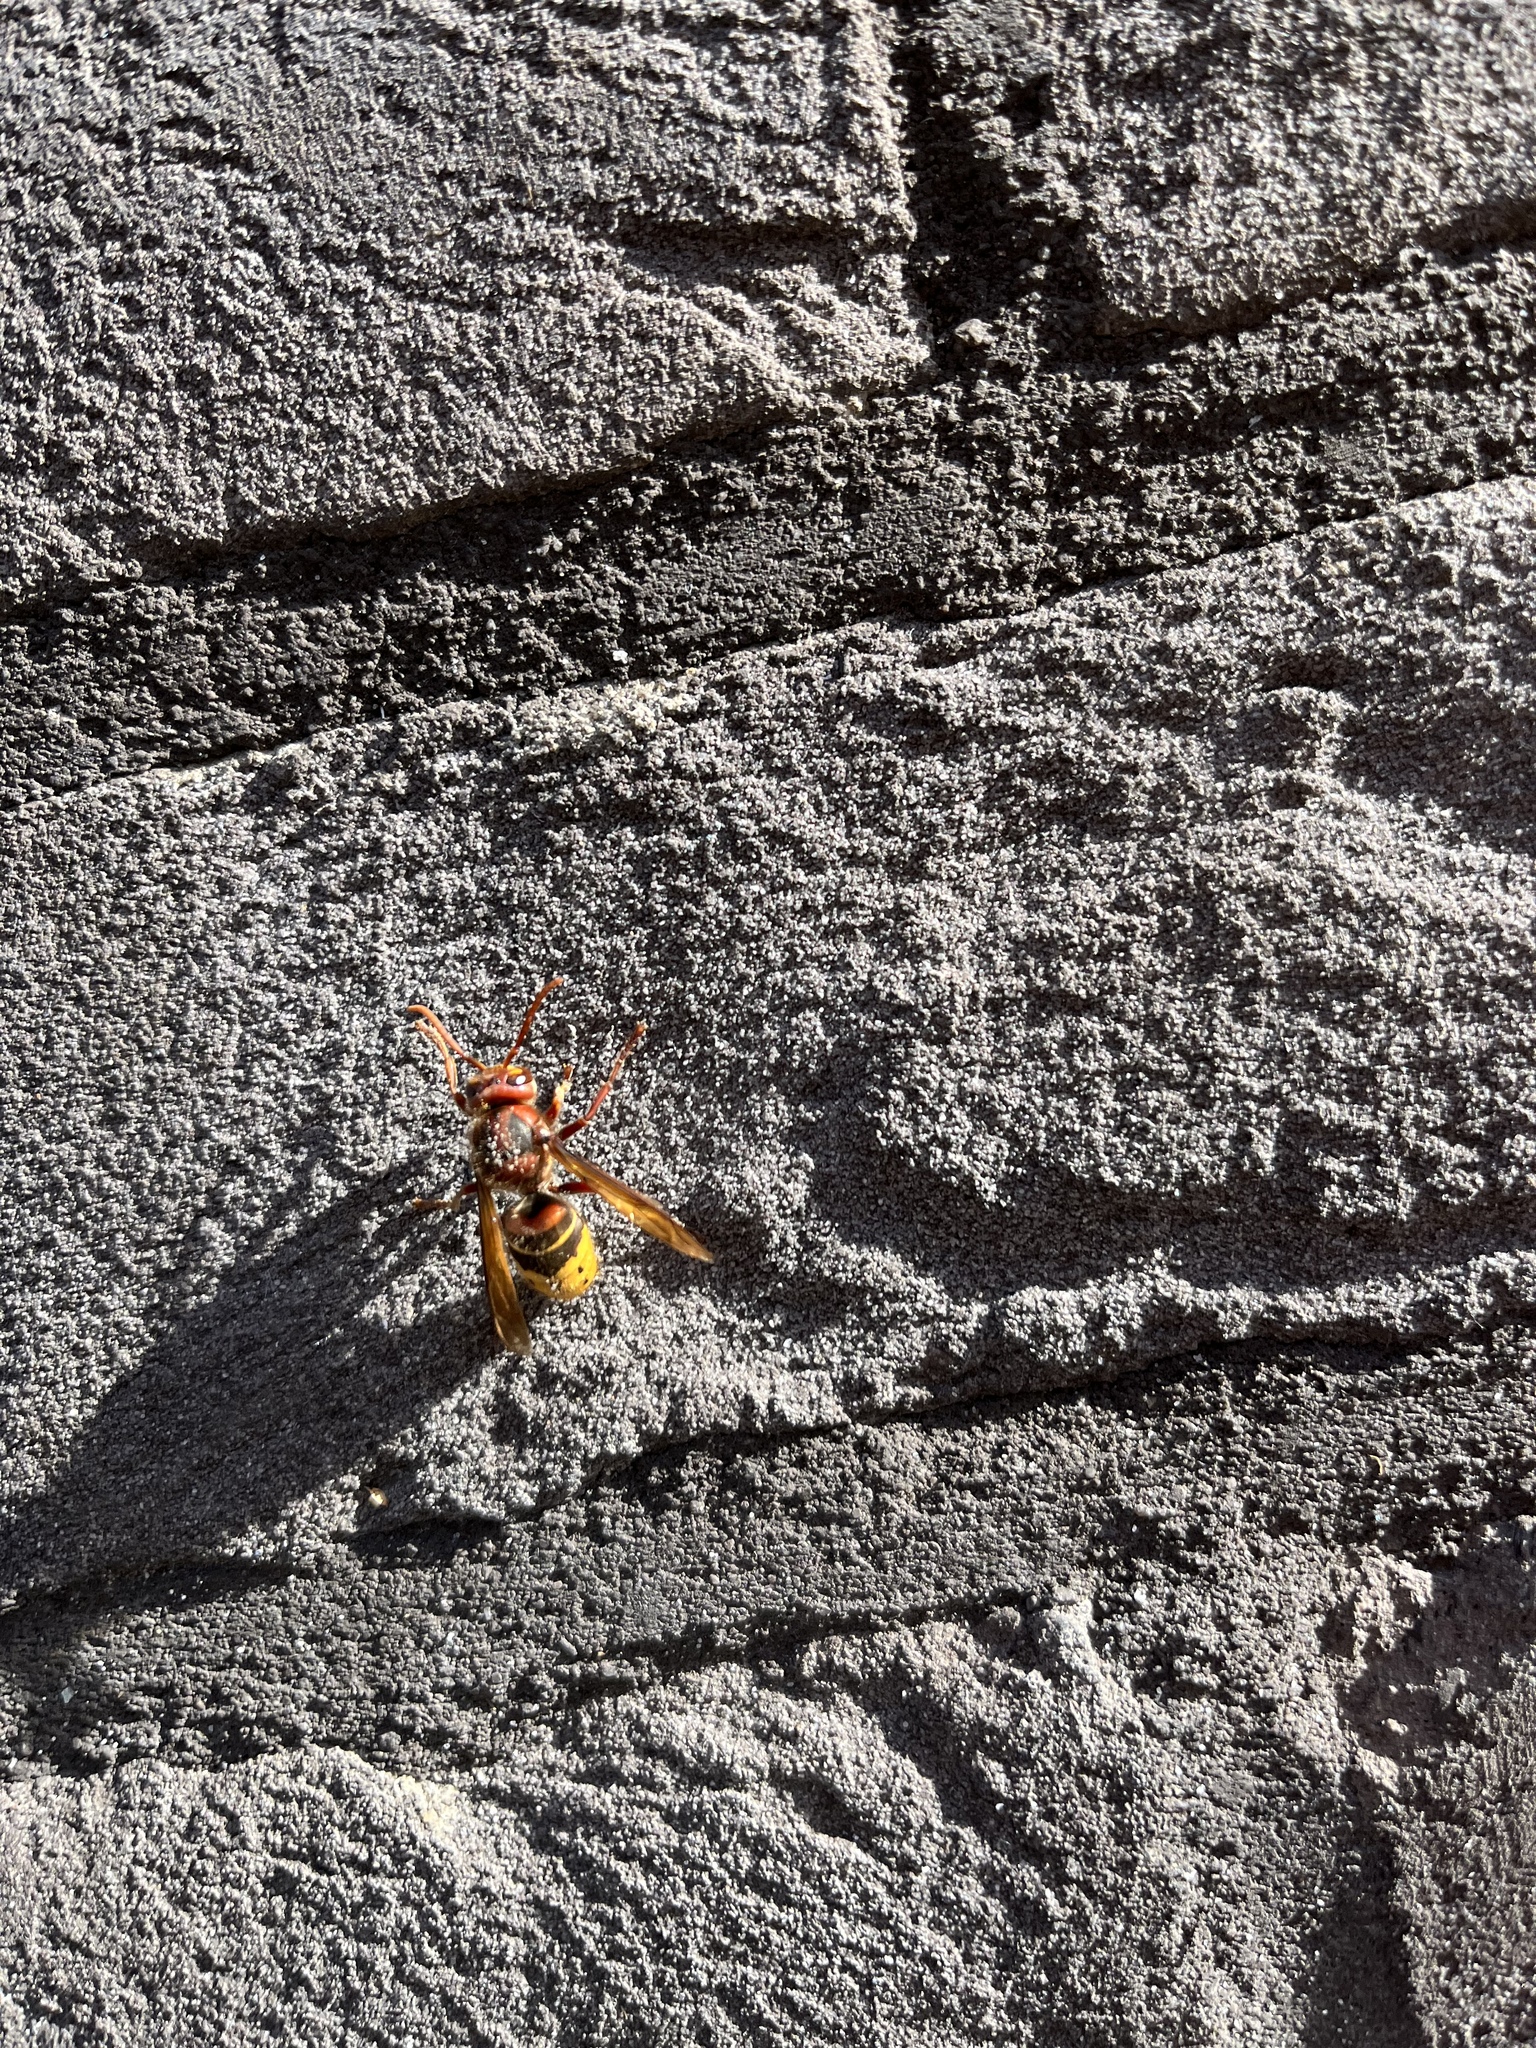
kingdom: Animalia
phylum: Arthropoda
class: Insecta
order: Hymenoptera
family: Vespidae
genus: Vespa
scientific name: Vespa crabro
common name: Hornet
